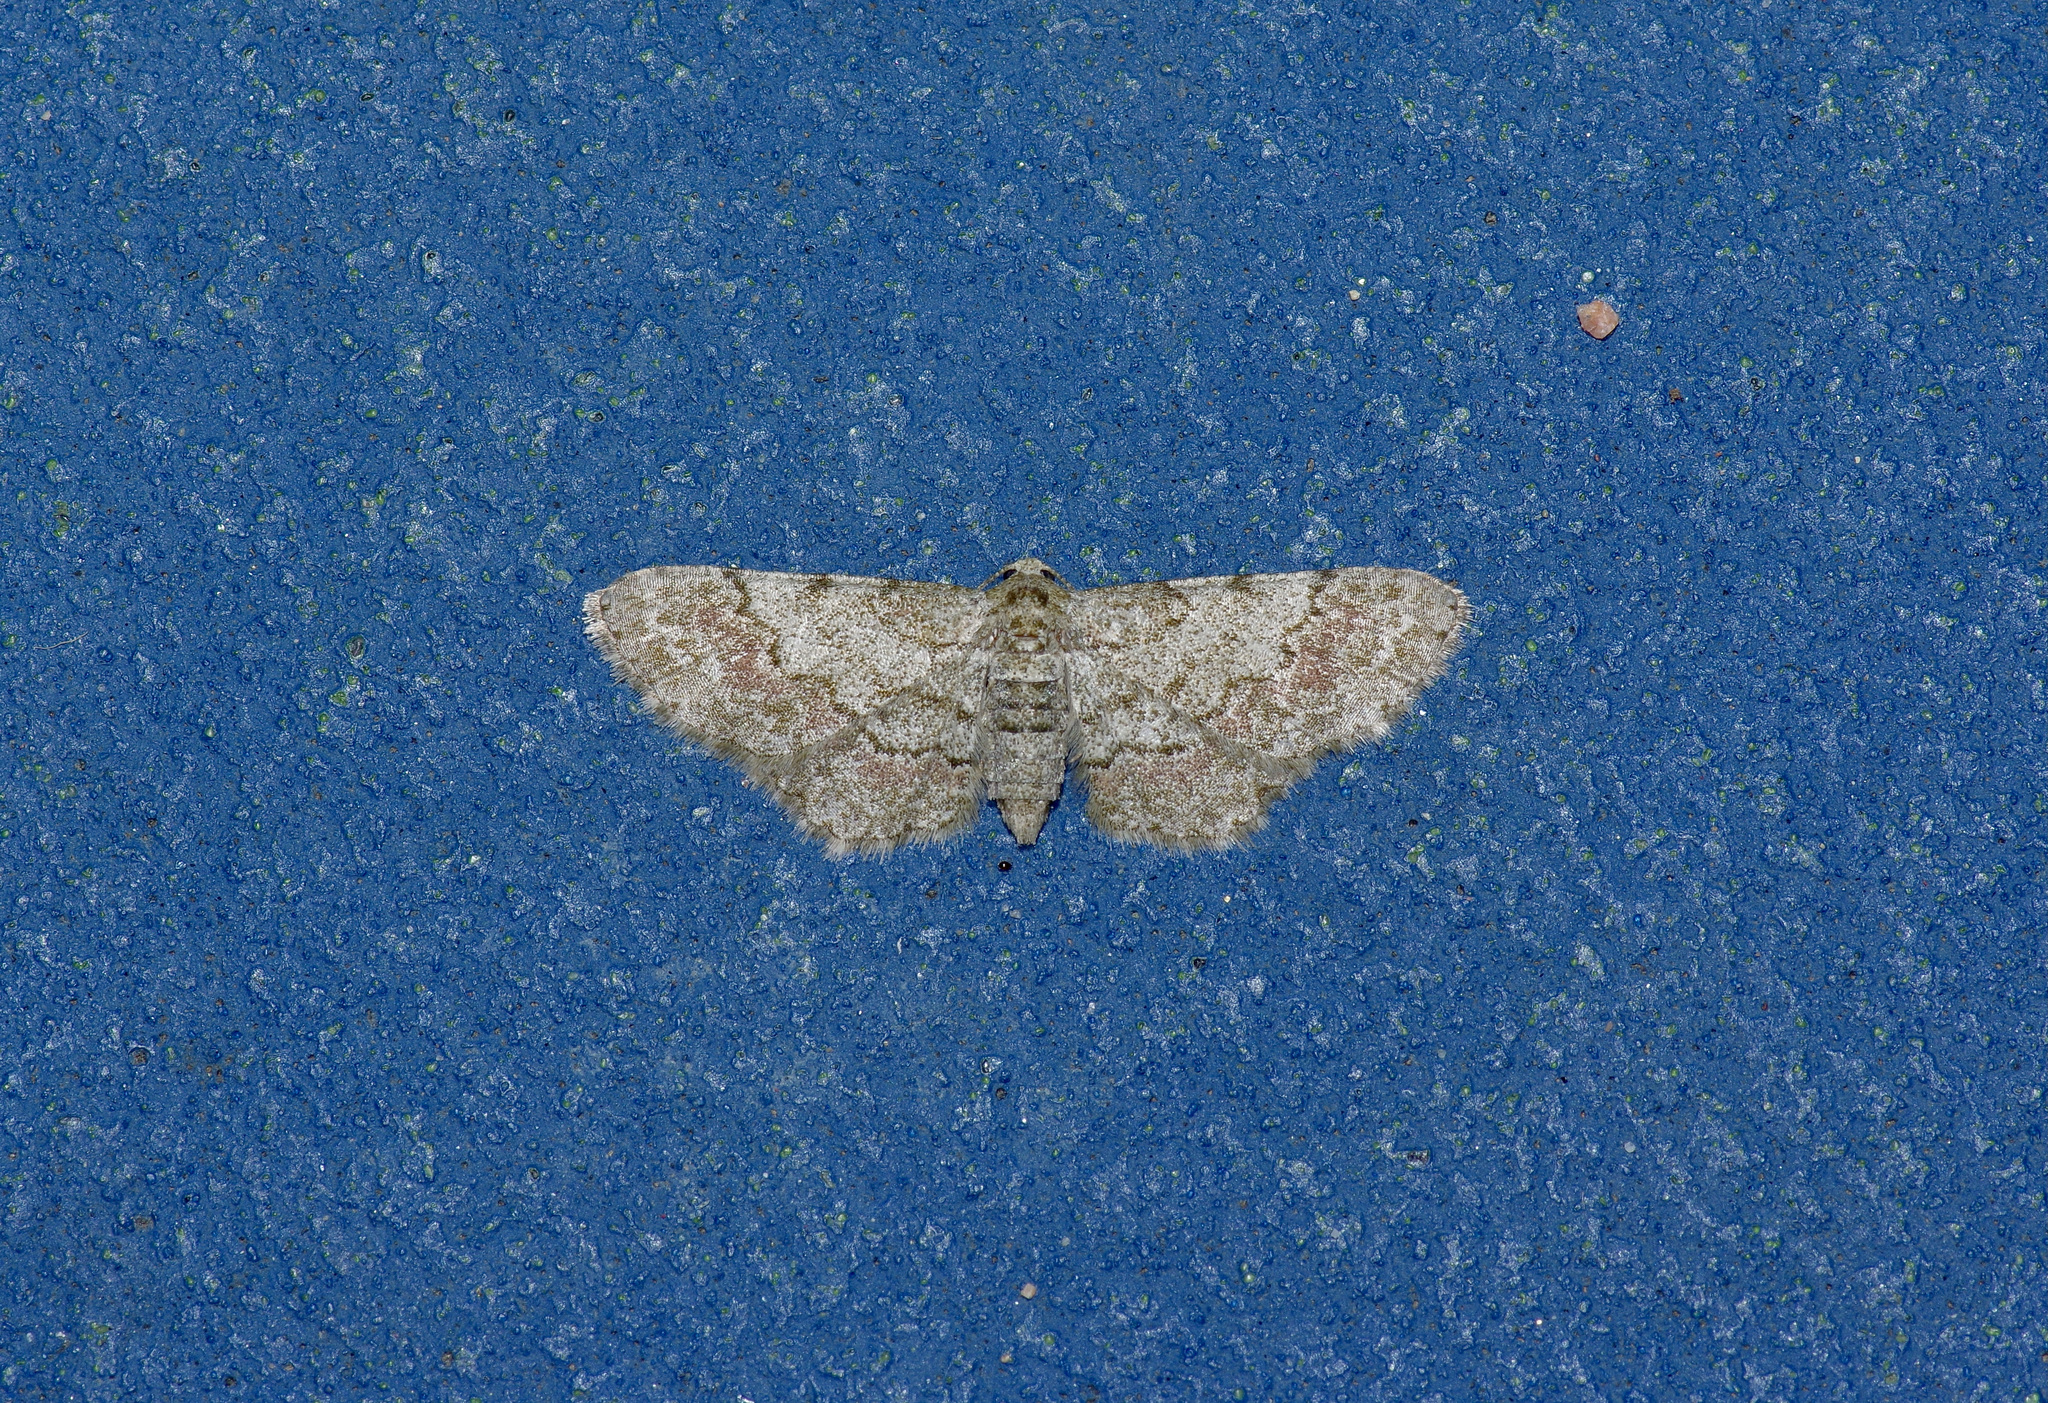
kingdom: Animalia
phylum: Arthropoda
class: Insecta
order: Lepidoptera
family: Geometridae
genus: Glenoides
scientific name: Glenoides texanaria
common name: Texas gray
